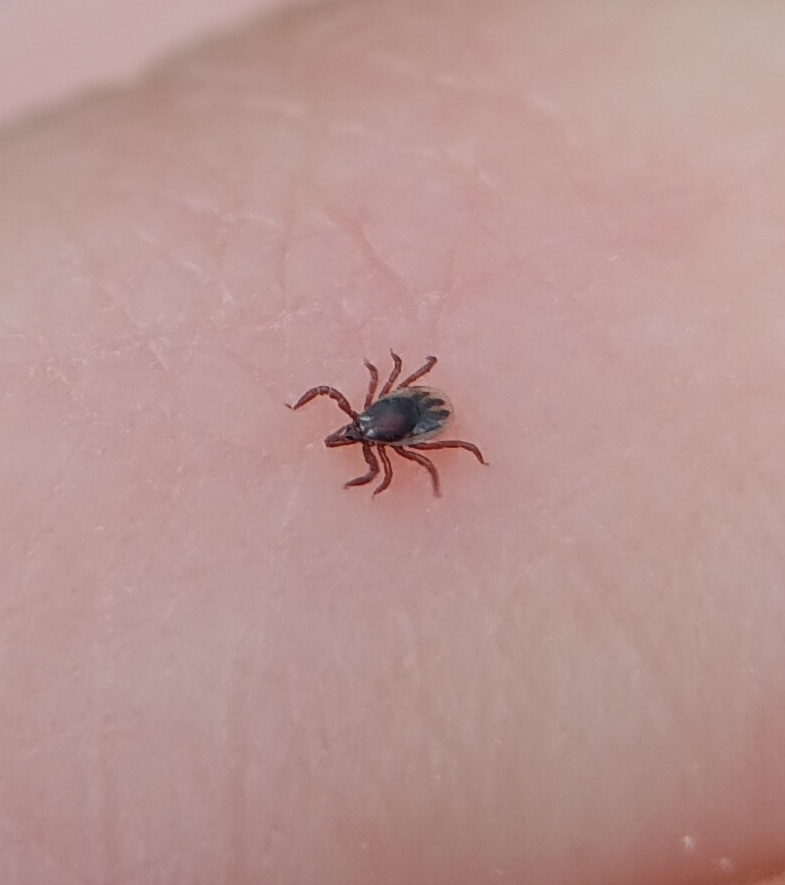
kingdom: Animalia
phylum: Arthropoda
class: Arachnida
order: Ixodida
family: Ixodidae
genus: Ixodes
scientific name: Ixodes scapularis
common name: Black legged tick
